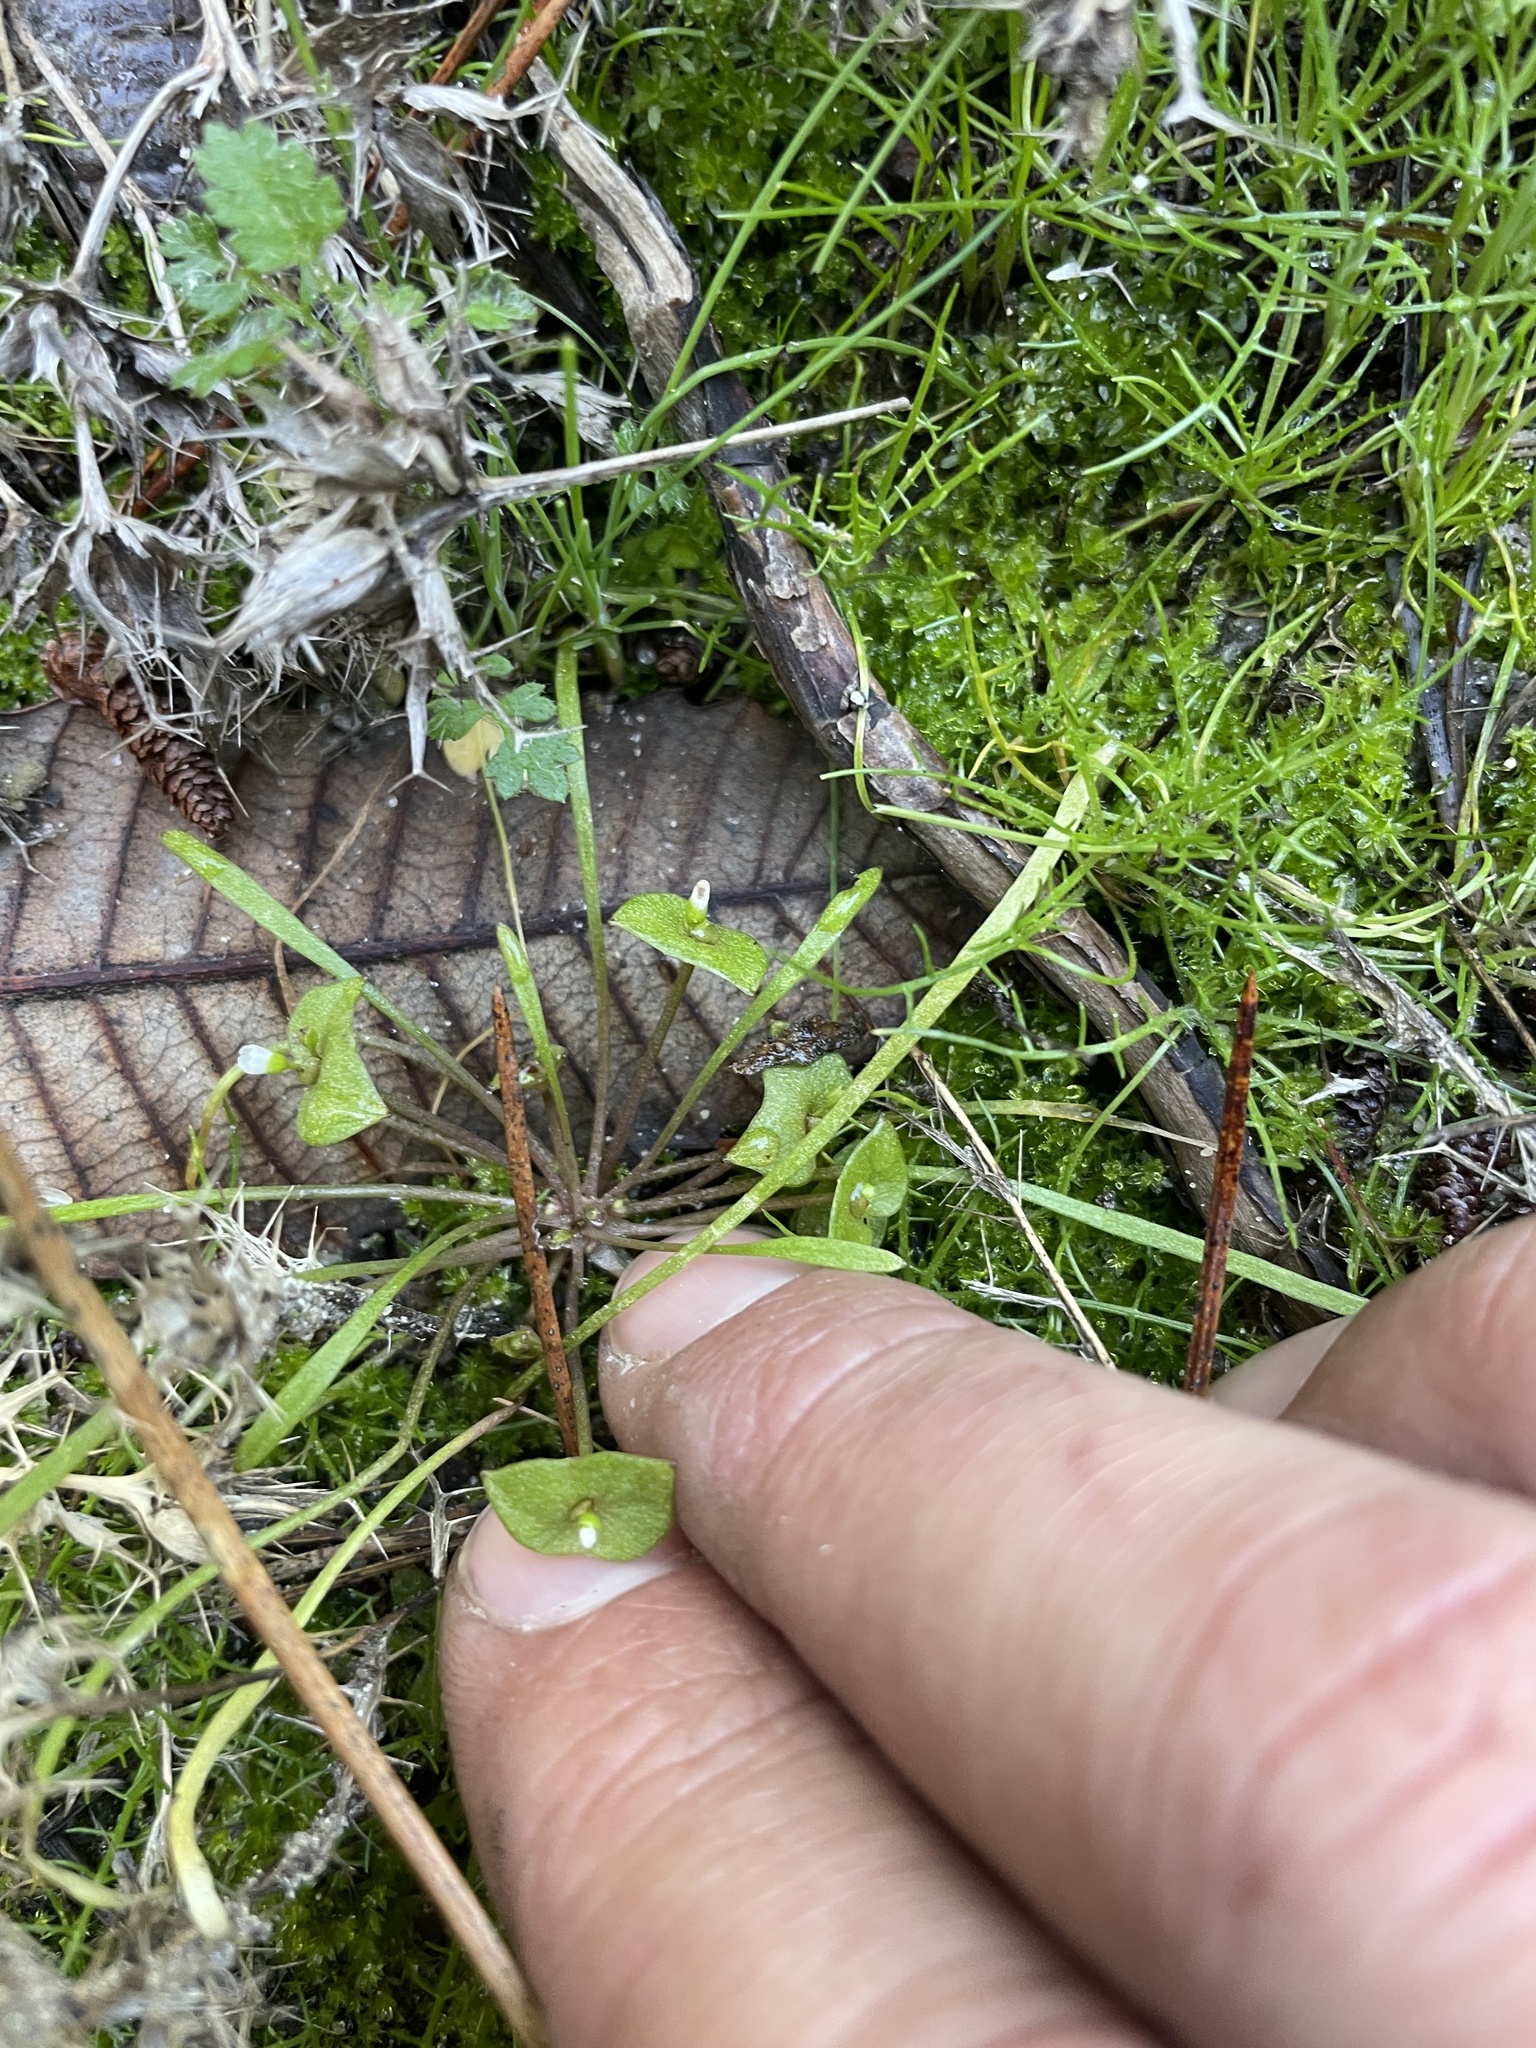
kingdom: Plantae
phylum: Tracheophyta
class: Magnoliopsida
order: Caryophyllales
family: Montiaceae
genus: Claytonia
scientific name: Claytonia parviflora
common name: Indian-lettuce
